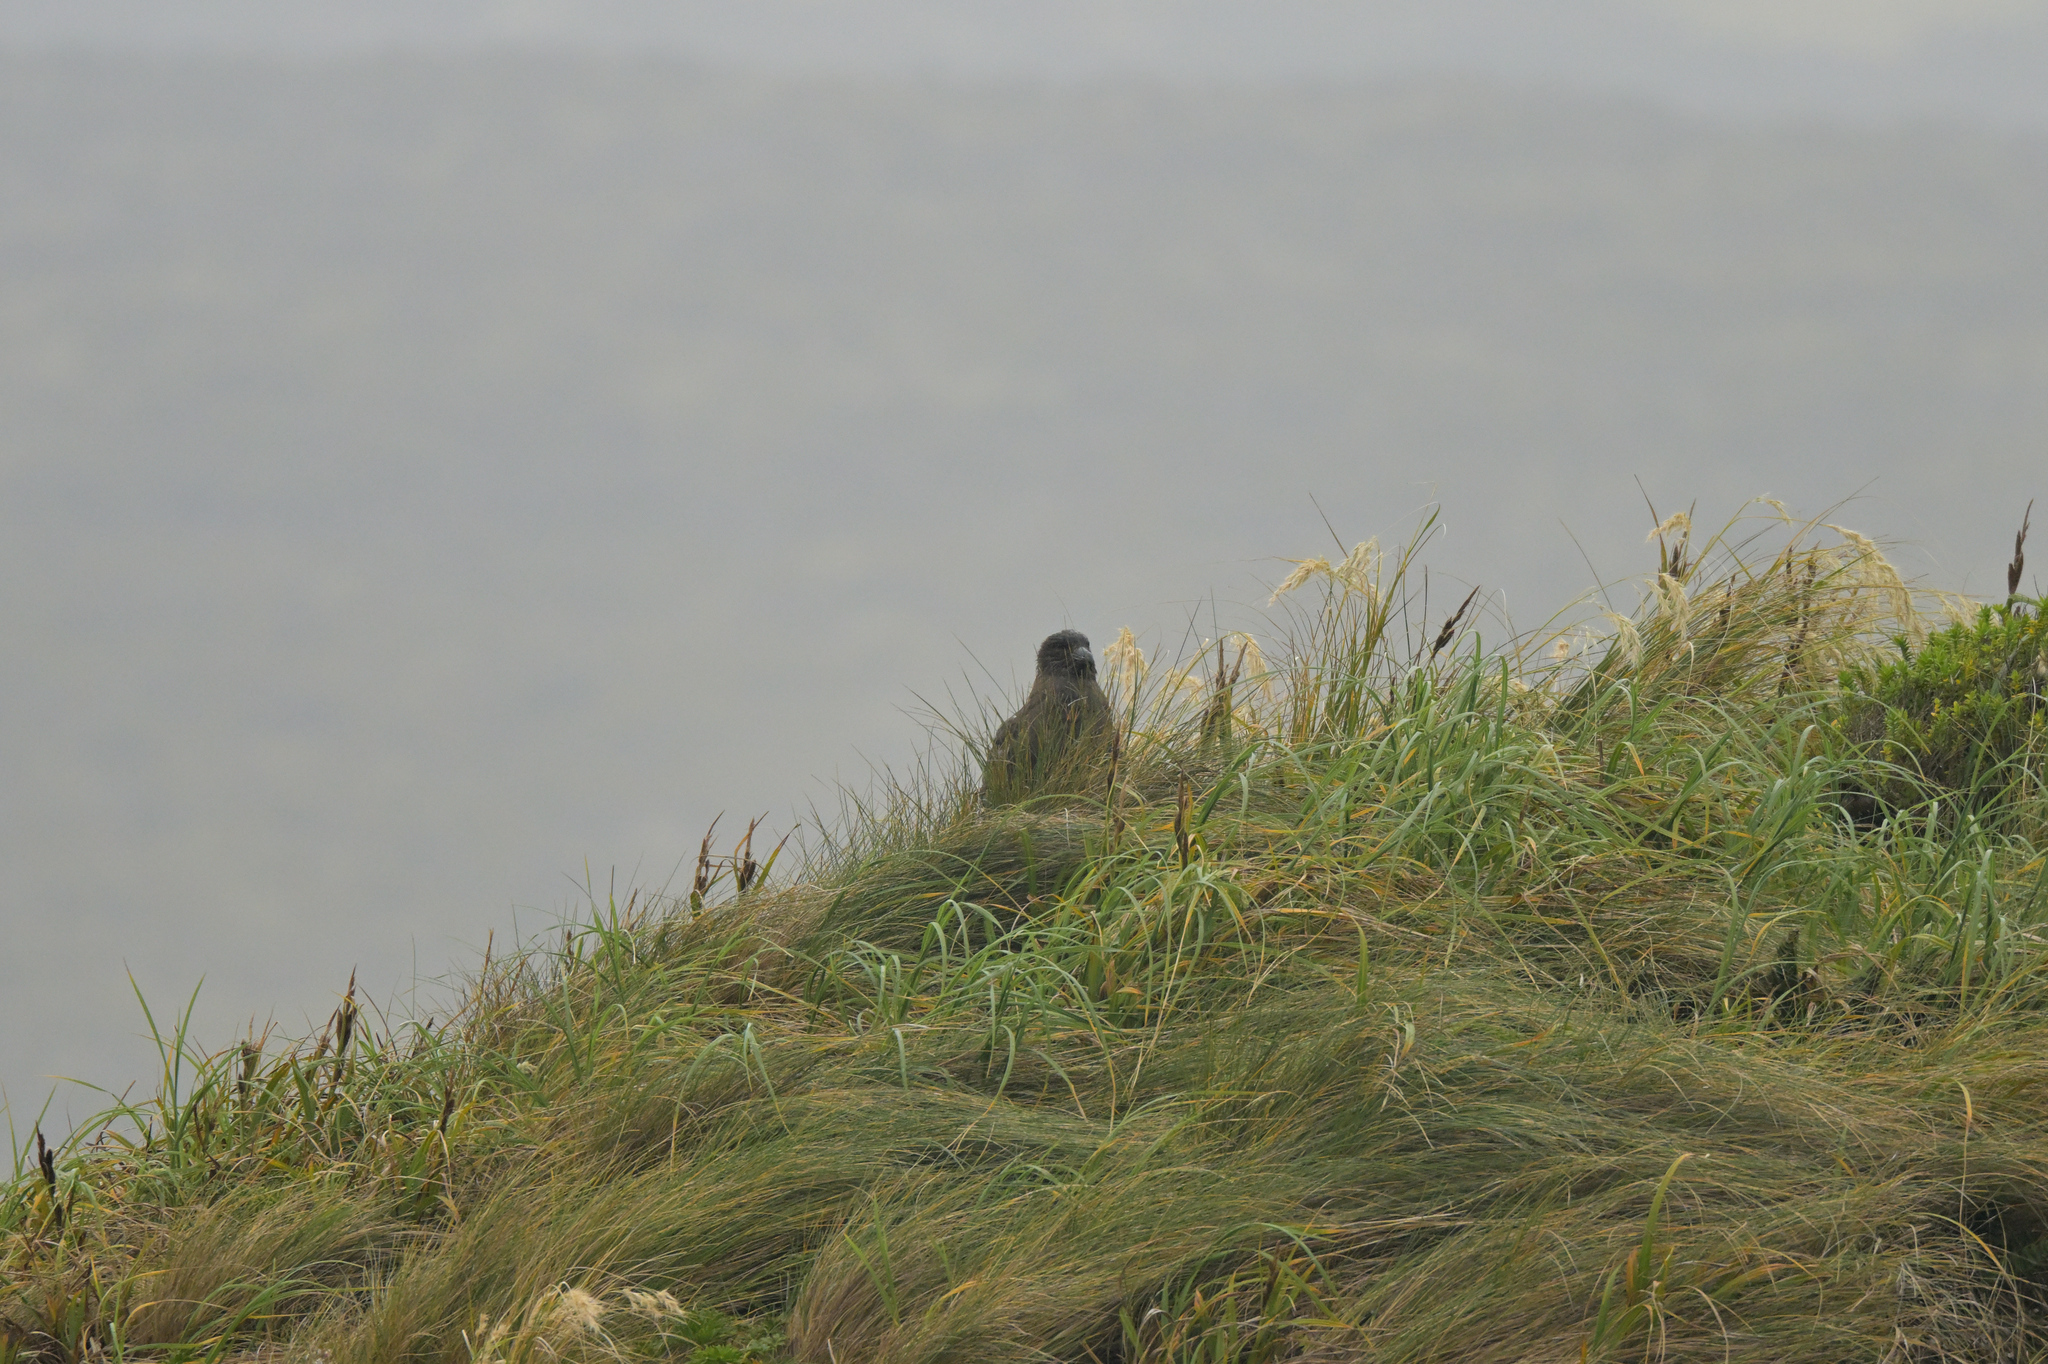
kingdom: Animalia
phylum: Chordata
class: Aves
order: Charadriiformes
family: Stercorariidae
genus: Stercorarius
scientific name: Stercorarius antarcticus
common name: Brown skua
